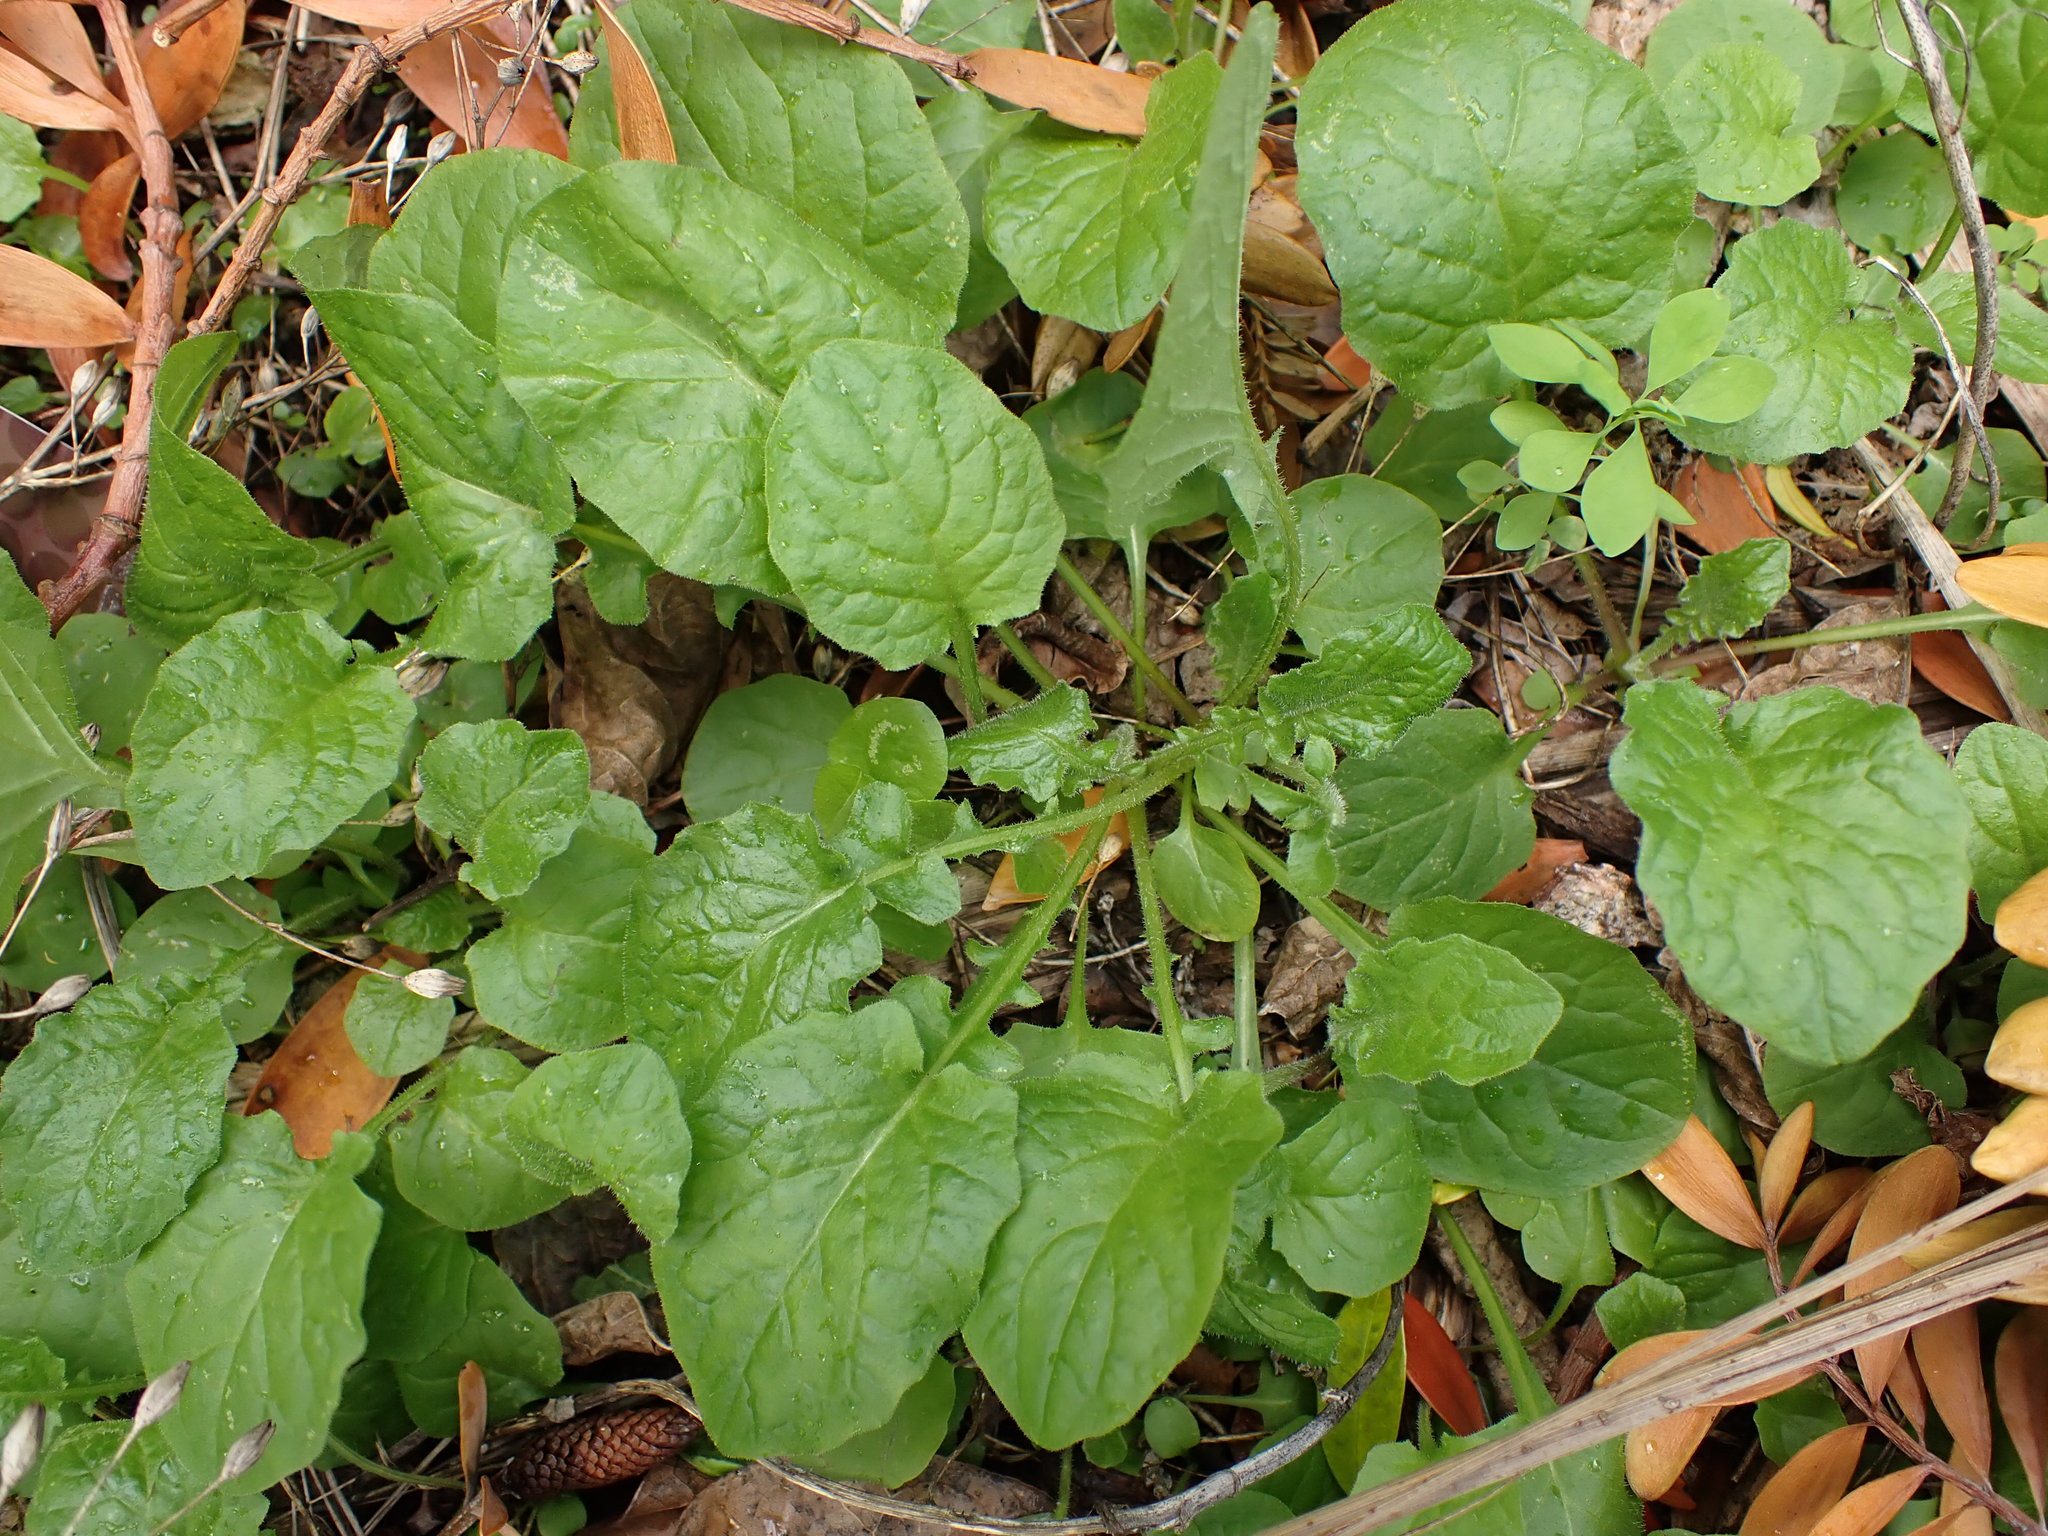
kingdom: Plantae
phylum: Tracheophyta
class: Magnoliopsida
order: Asterales
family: Asteraceae
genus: Lapsana
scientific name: Lapsana communis
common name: Nipplewort
